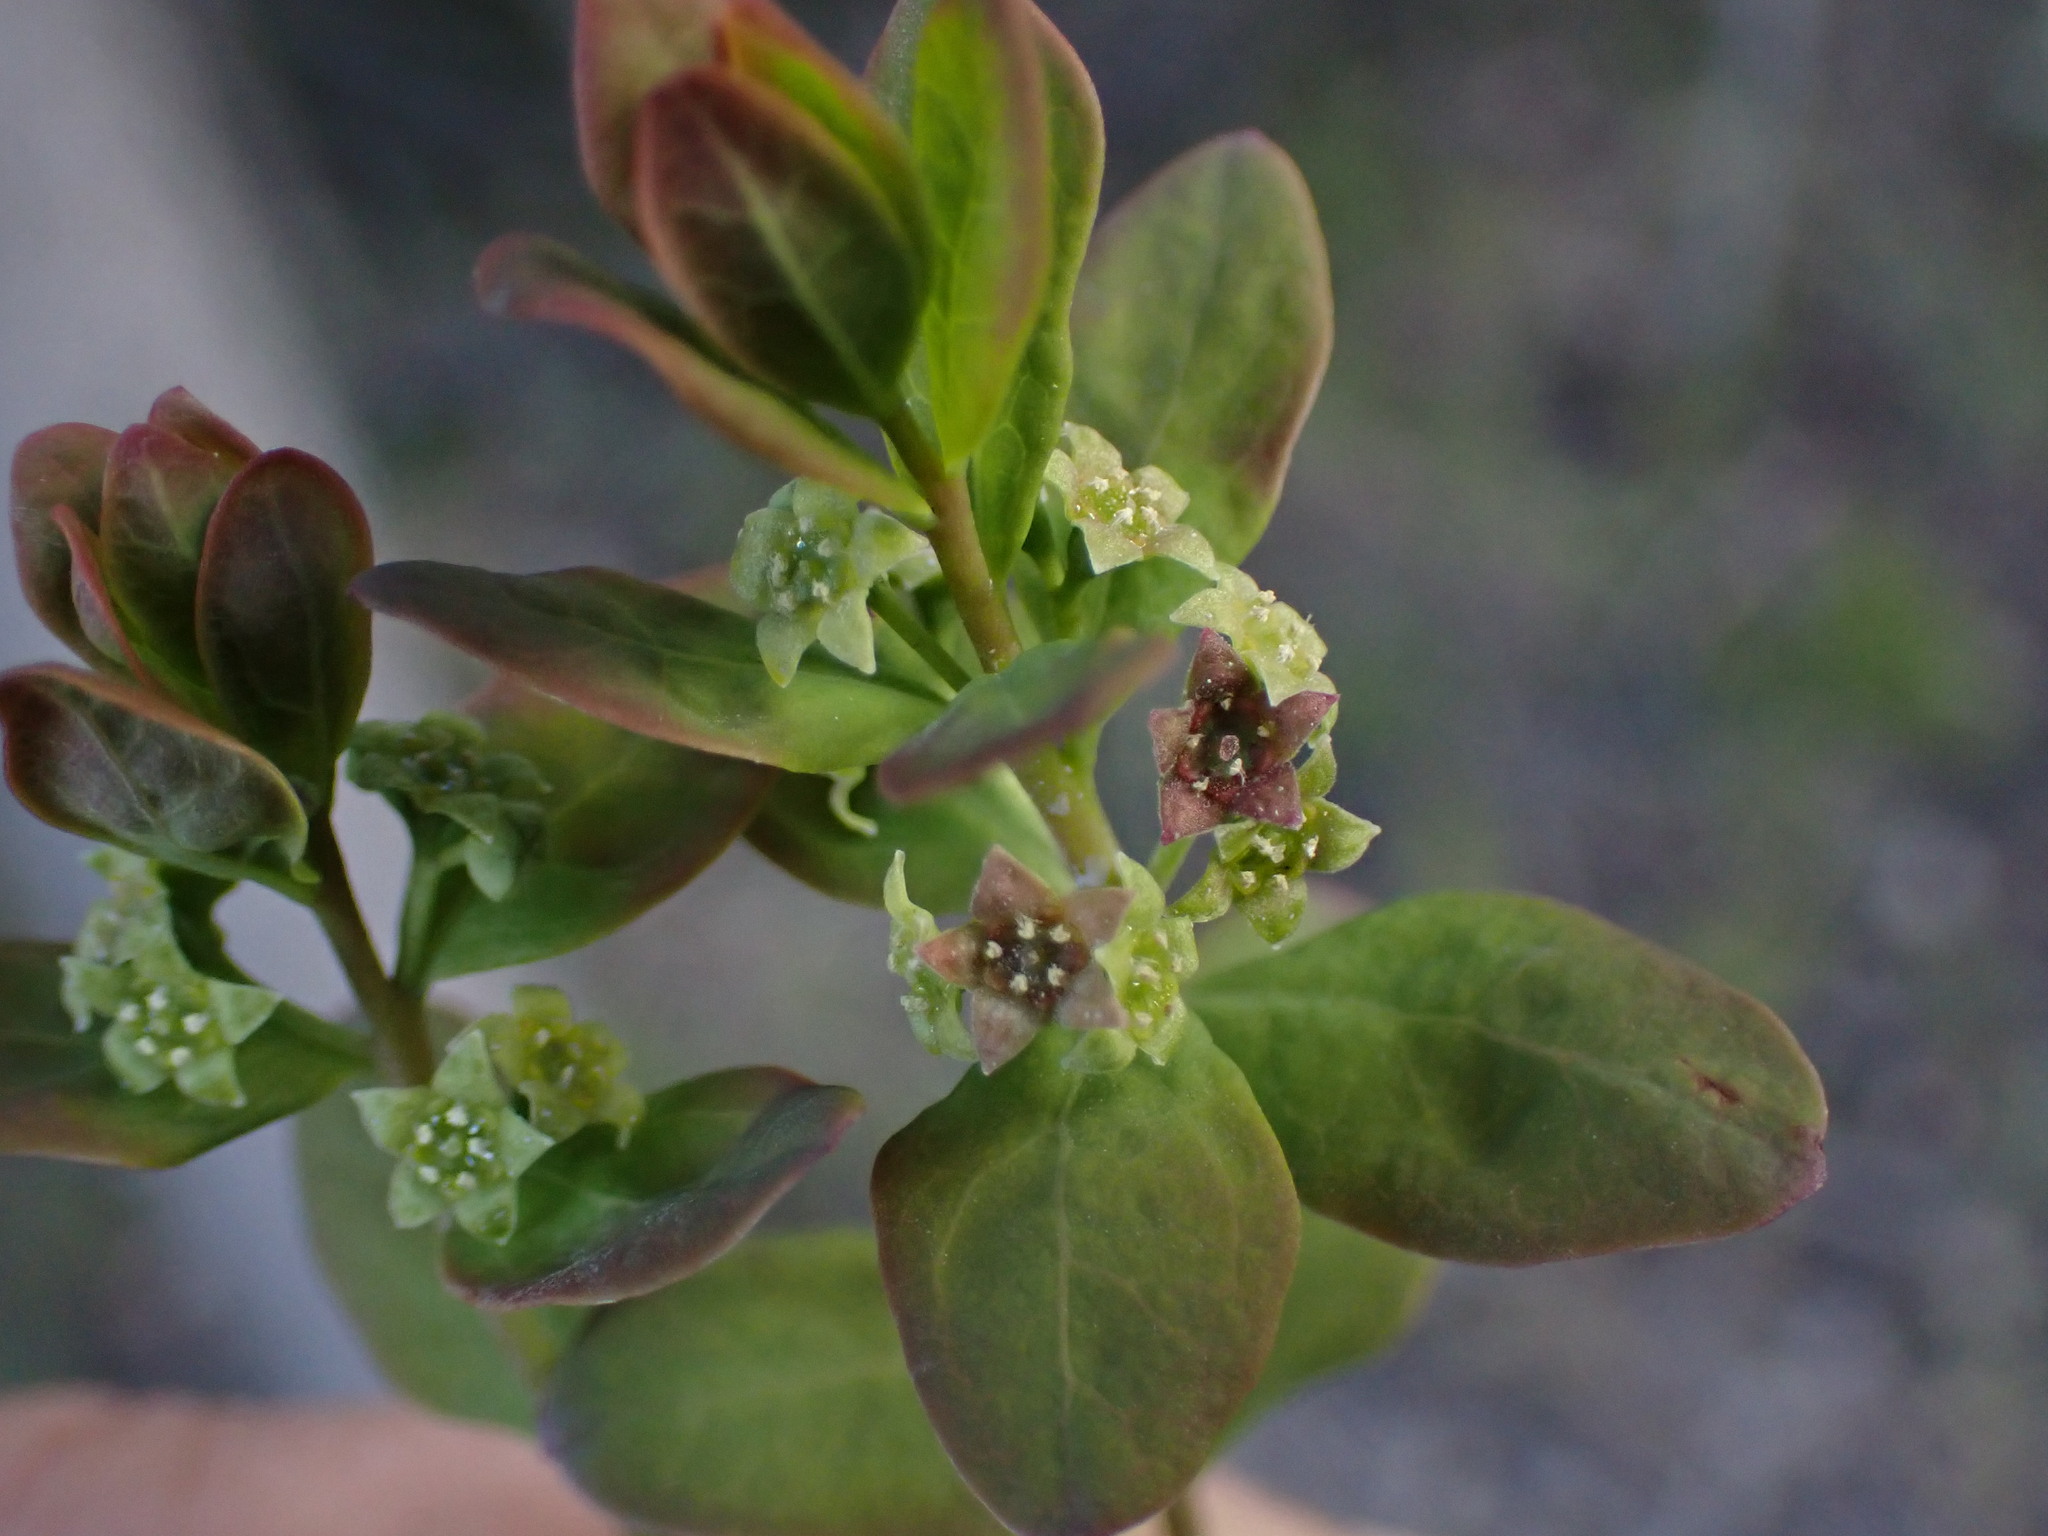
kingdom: Plantae
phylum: Tracheophyta
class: Magnoliopsida
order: Santalales
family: Comandraceae
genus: Geocaulon
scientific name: Geocaulon lividum
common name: Earthberry
